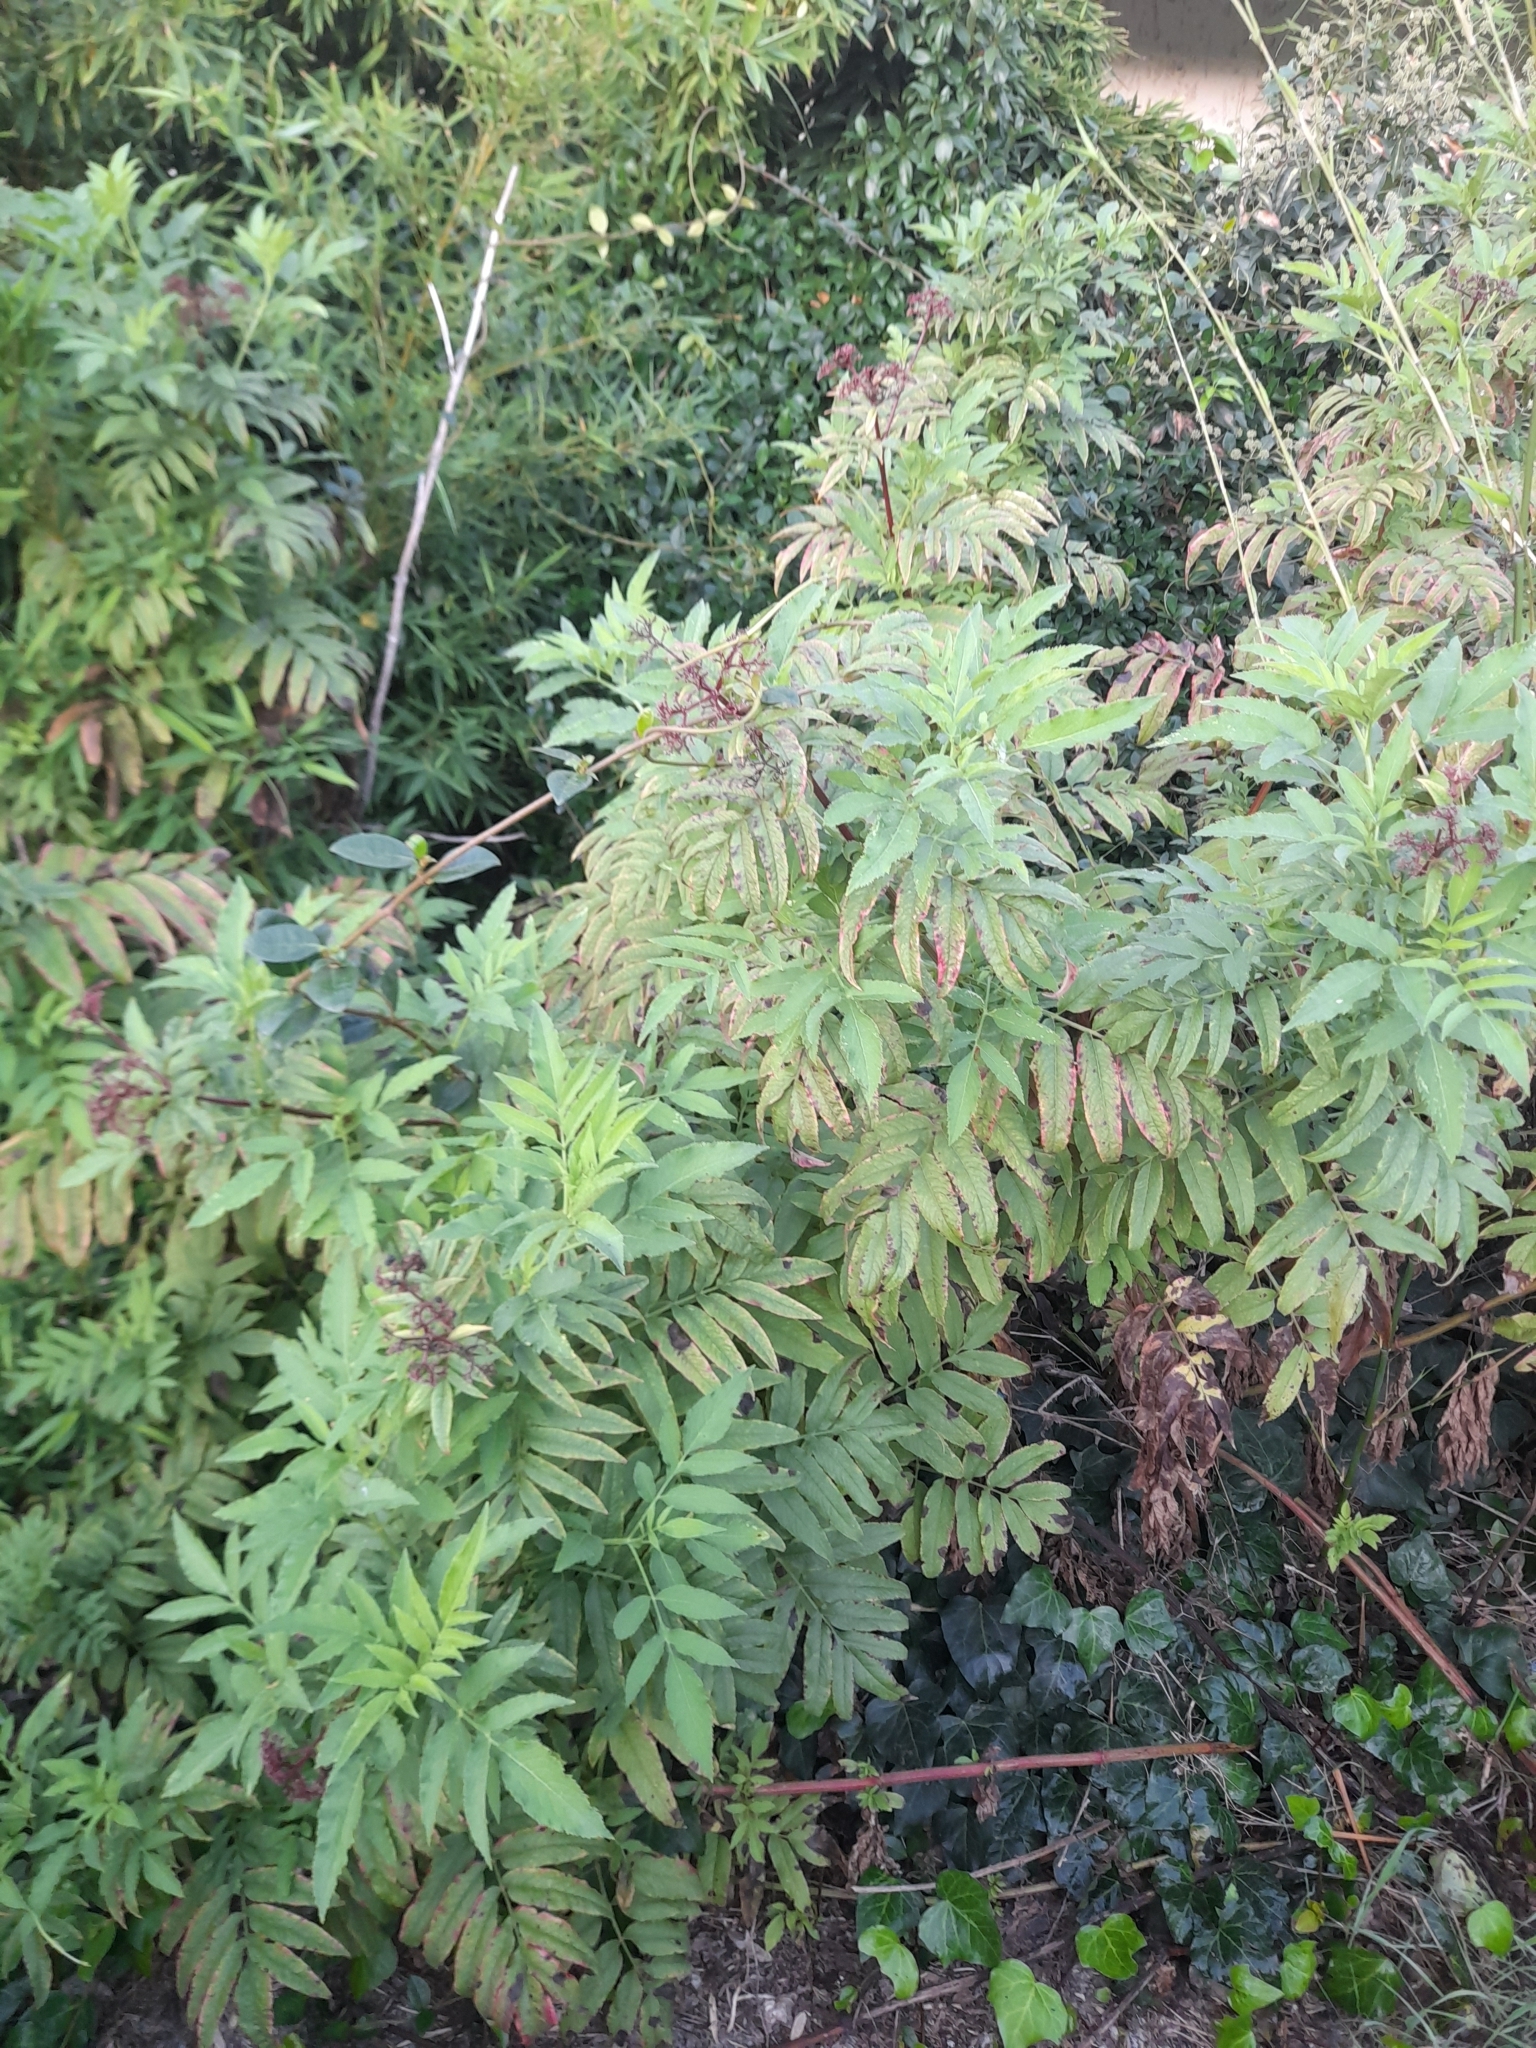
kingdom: Plantae
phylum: Tracheophyta
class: Magnoliopsida
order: Dipsacales
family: Viburnaceae
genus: Sambucus
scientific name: Sambucus ebulus
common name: Dwarf elder
